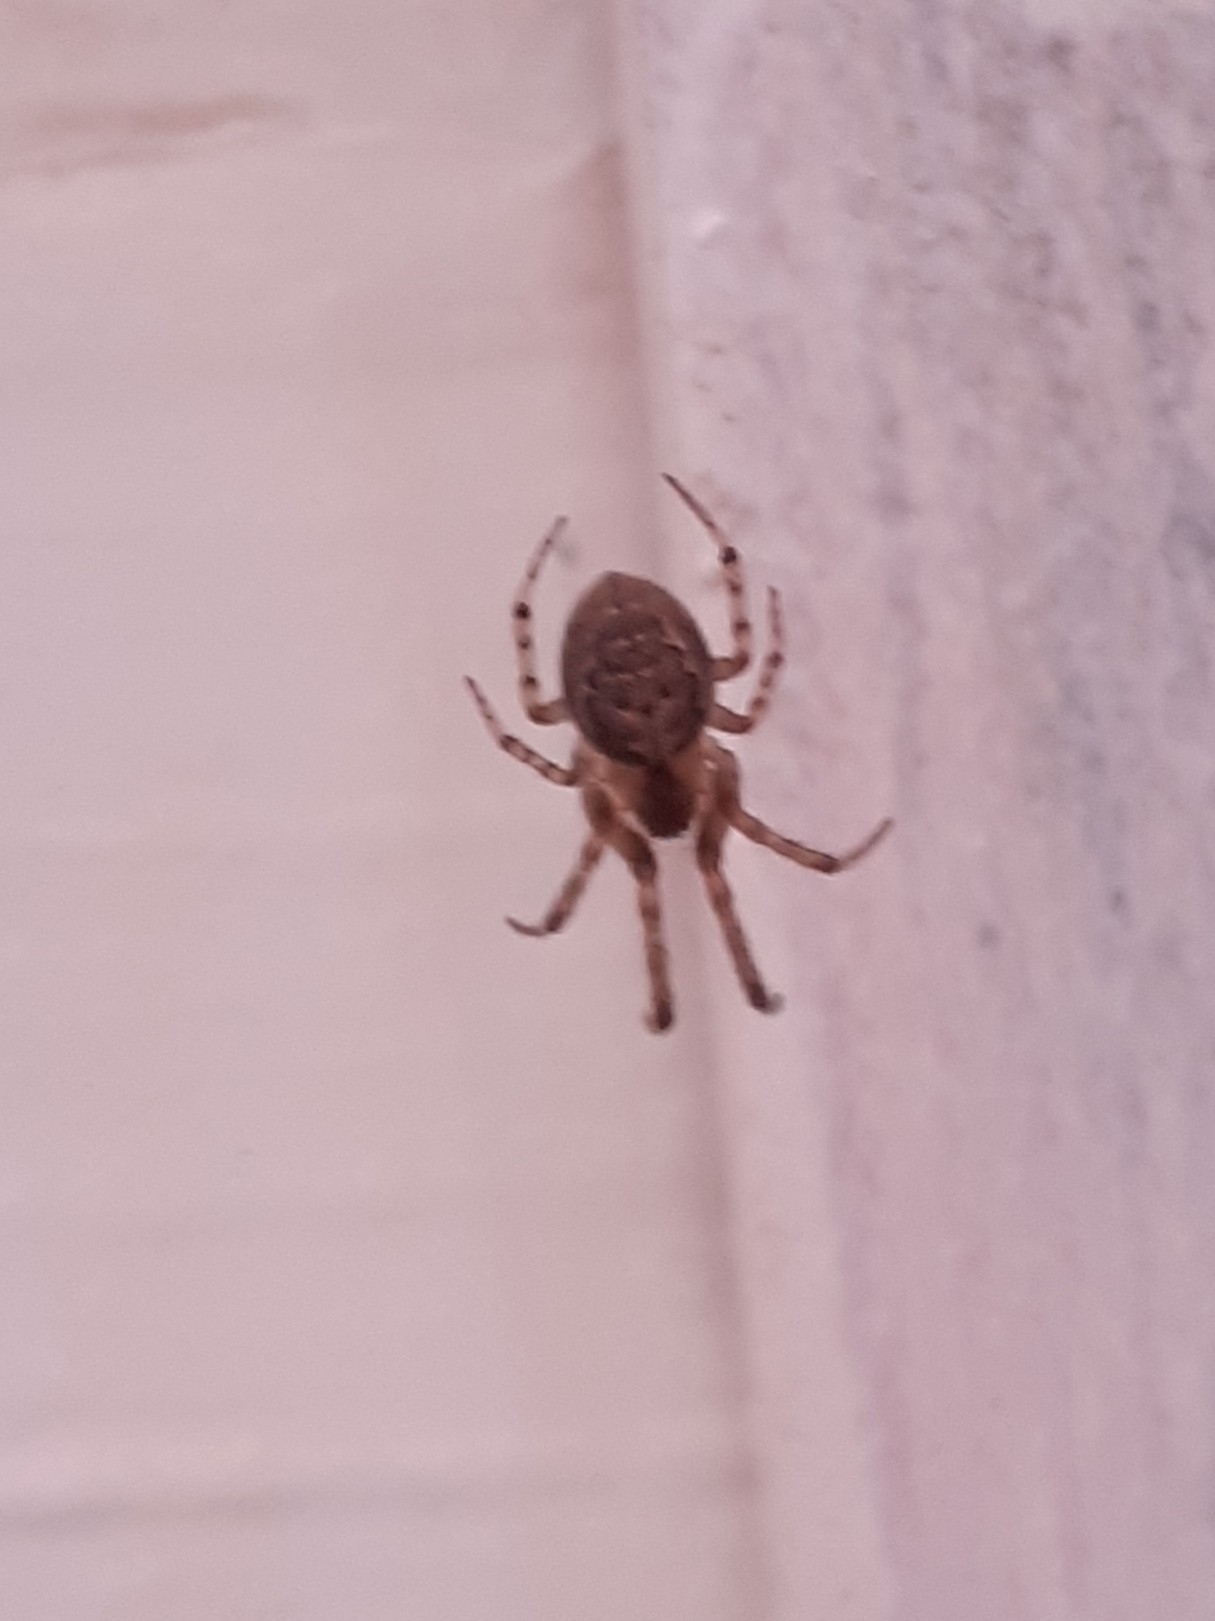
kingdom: Animalia
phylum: Arthropoda
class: Arachnida
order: Araneae
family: Araneidae
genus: Zygiella
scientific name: Zygiella x-notata
